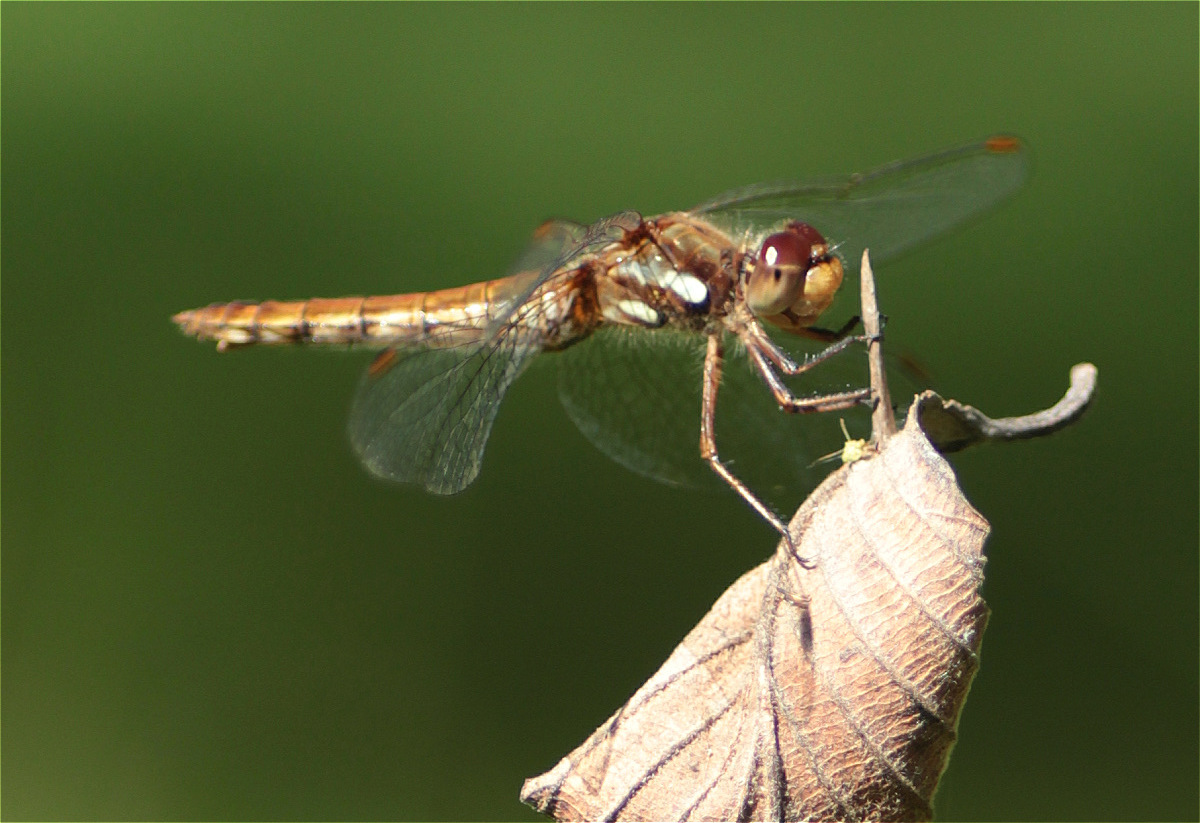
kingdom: Animalia
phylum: Arthropoda
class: Insecta
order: Odonata
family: Libellulidae
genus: Sympetrum
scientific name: Sympetrum gilvum
